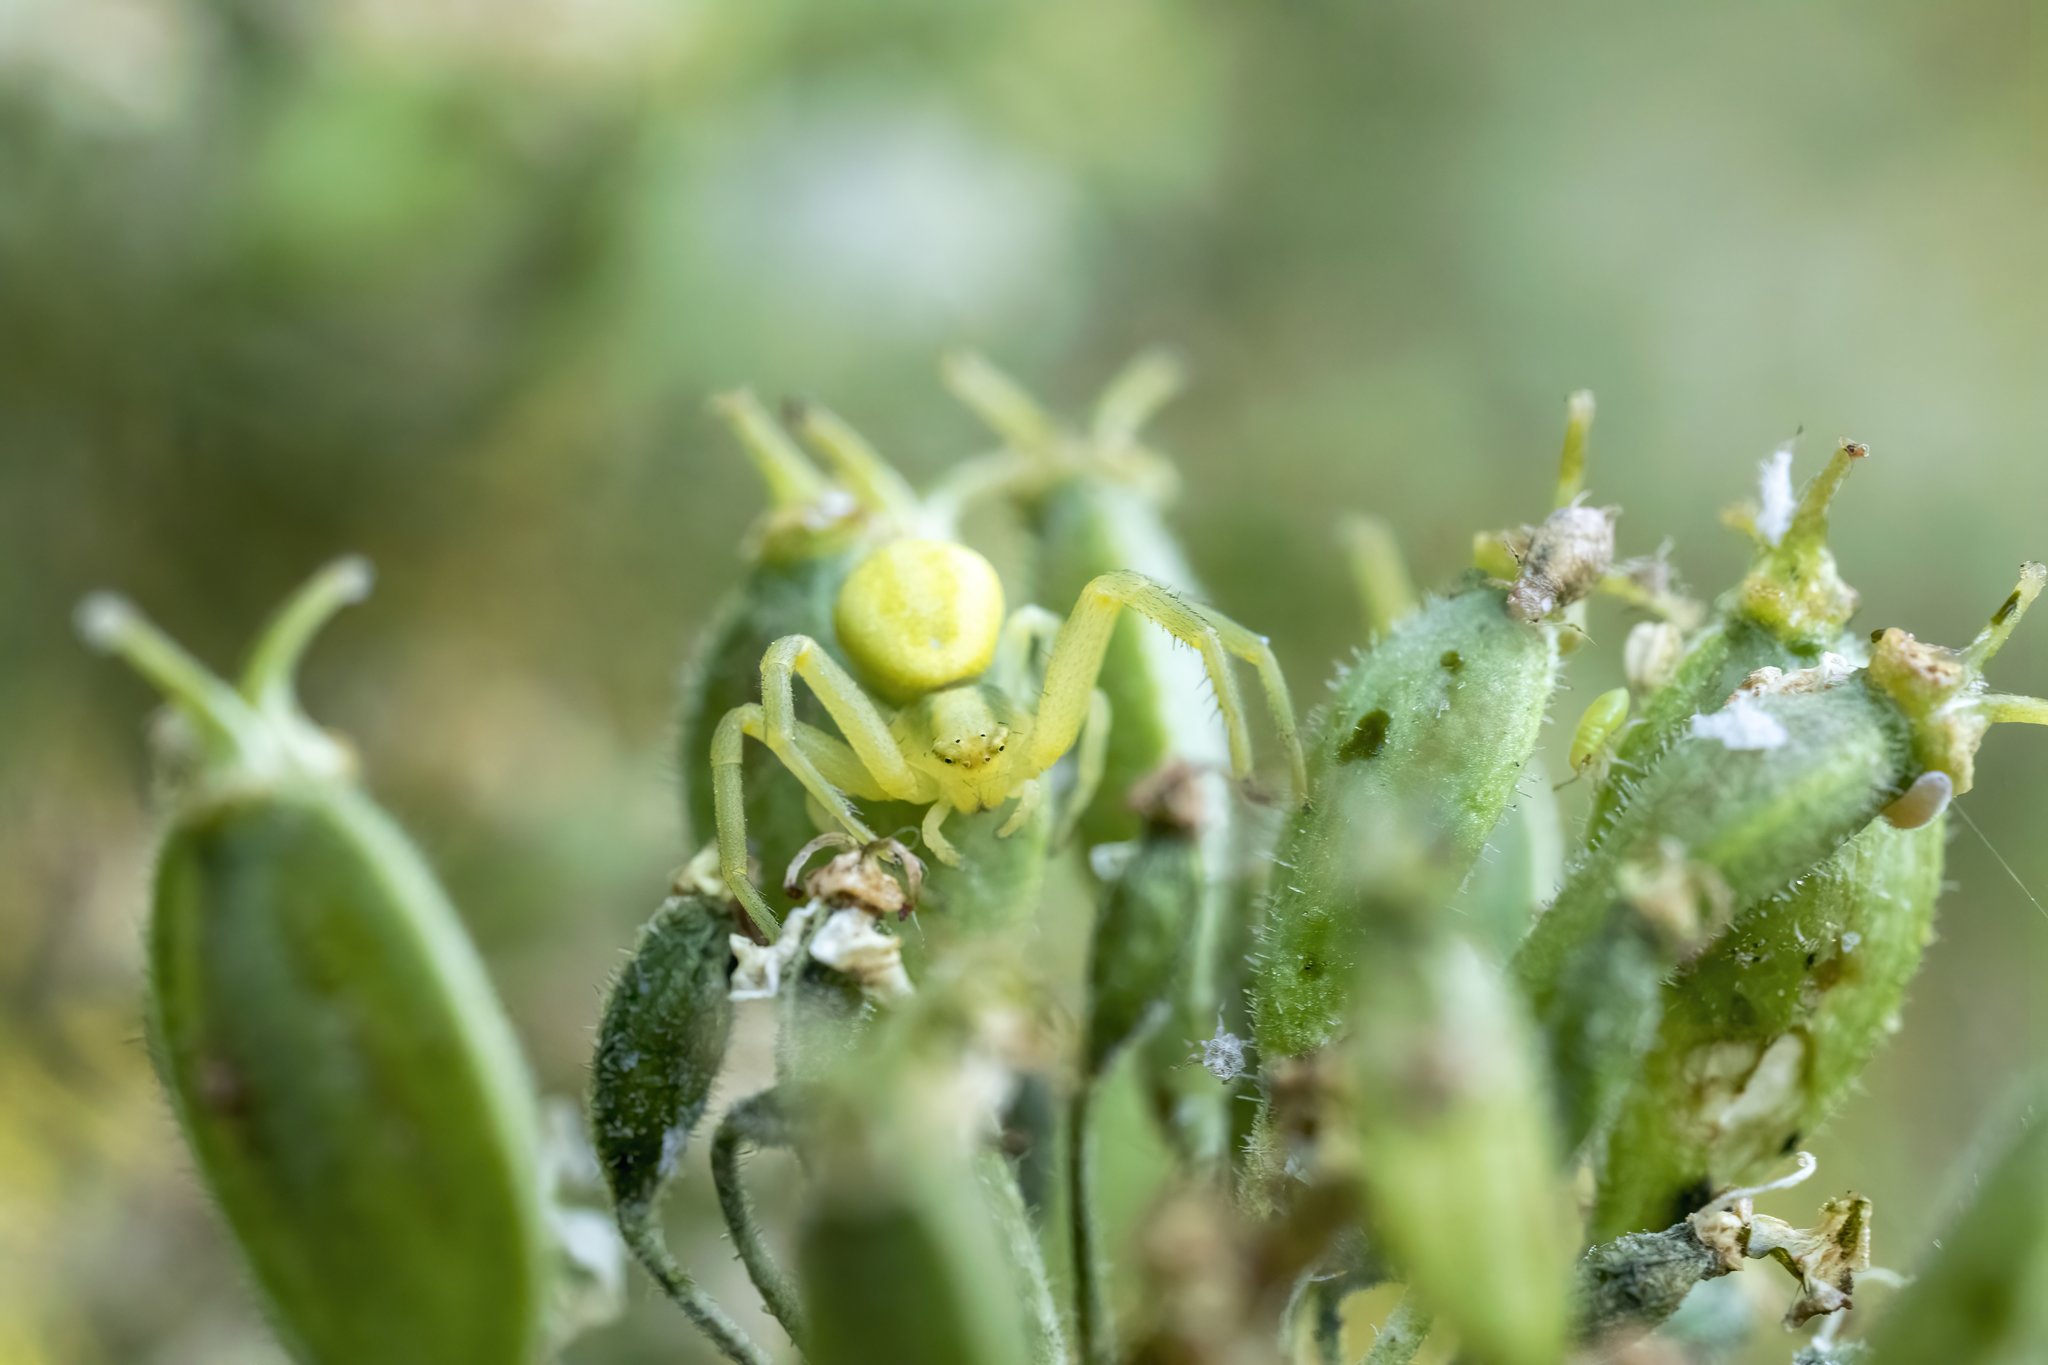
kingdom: Animalia
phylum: Arthropoda
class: Arachnida
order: Araneae
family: Thomisidae
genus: Misumena
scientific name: Misumena vatia
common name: Goldenrod crab spider
